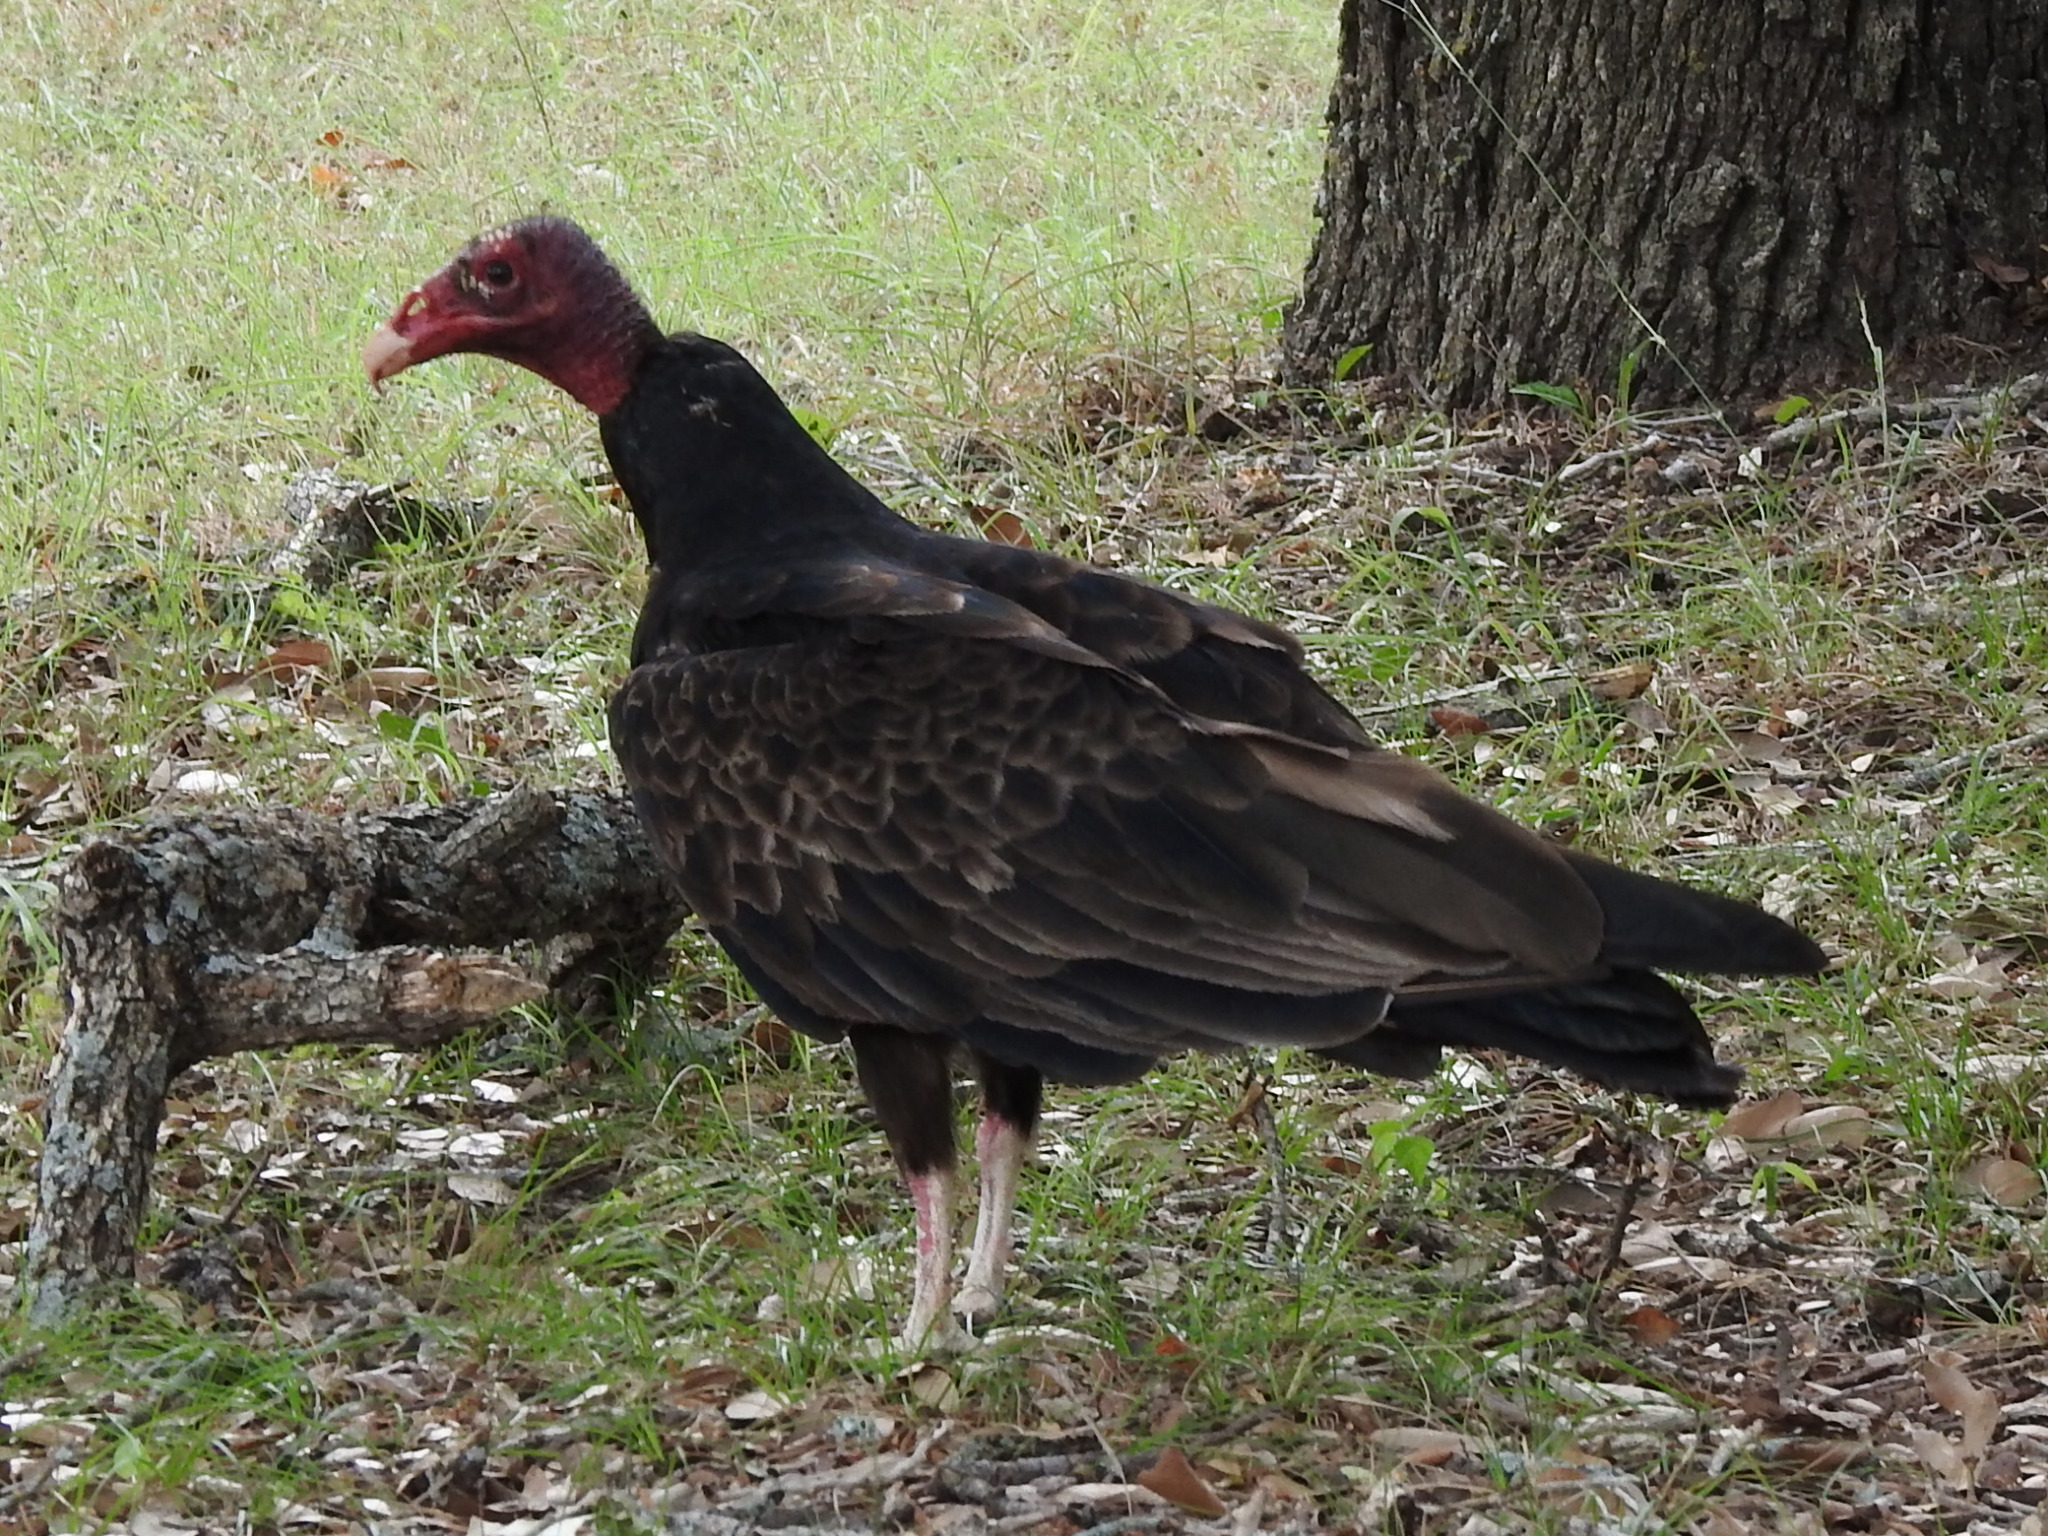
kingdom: Animalia
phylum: Chordata
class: Aves
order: Accipitriformes
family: Cathartidae
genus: Cathartes
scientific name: Cathartes aura
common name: Turkey vulture
